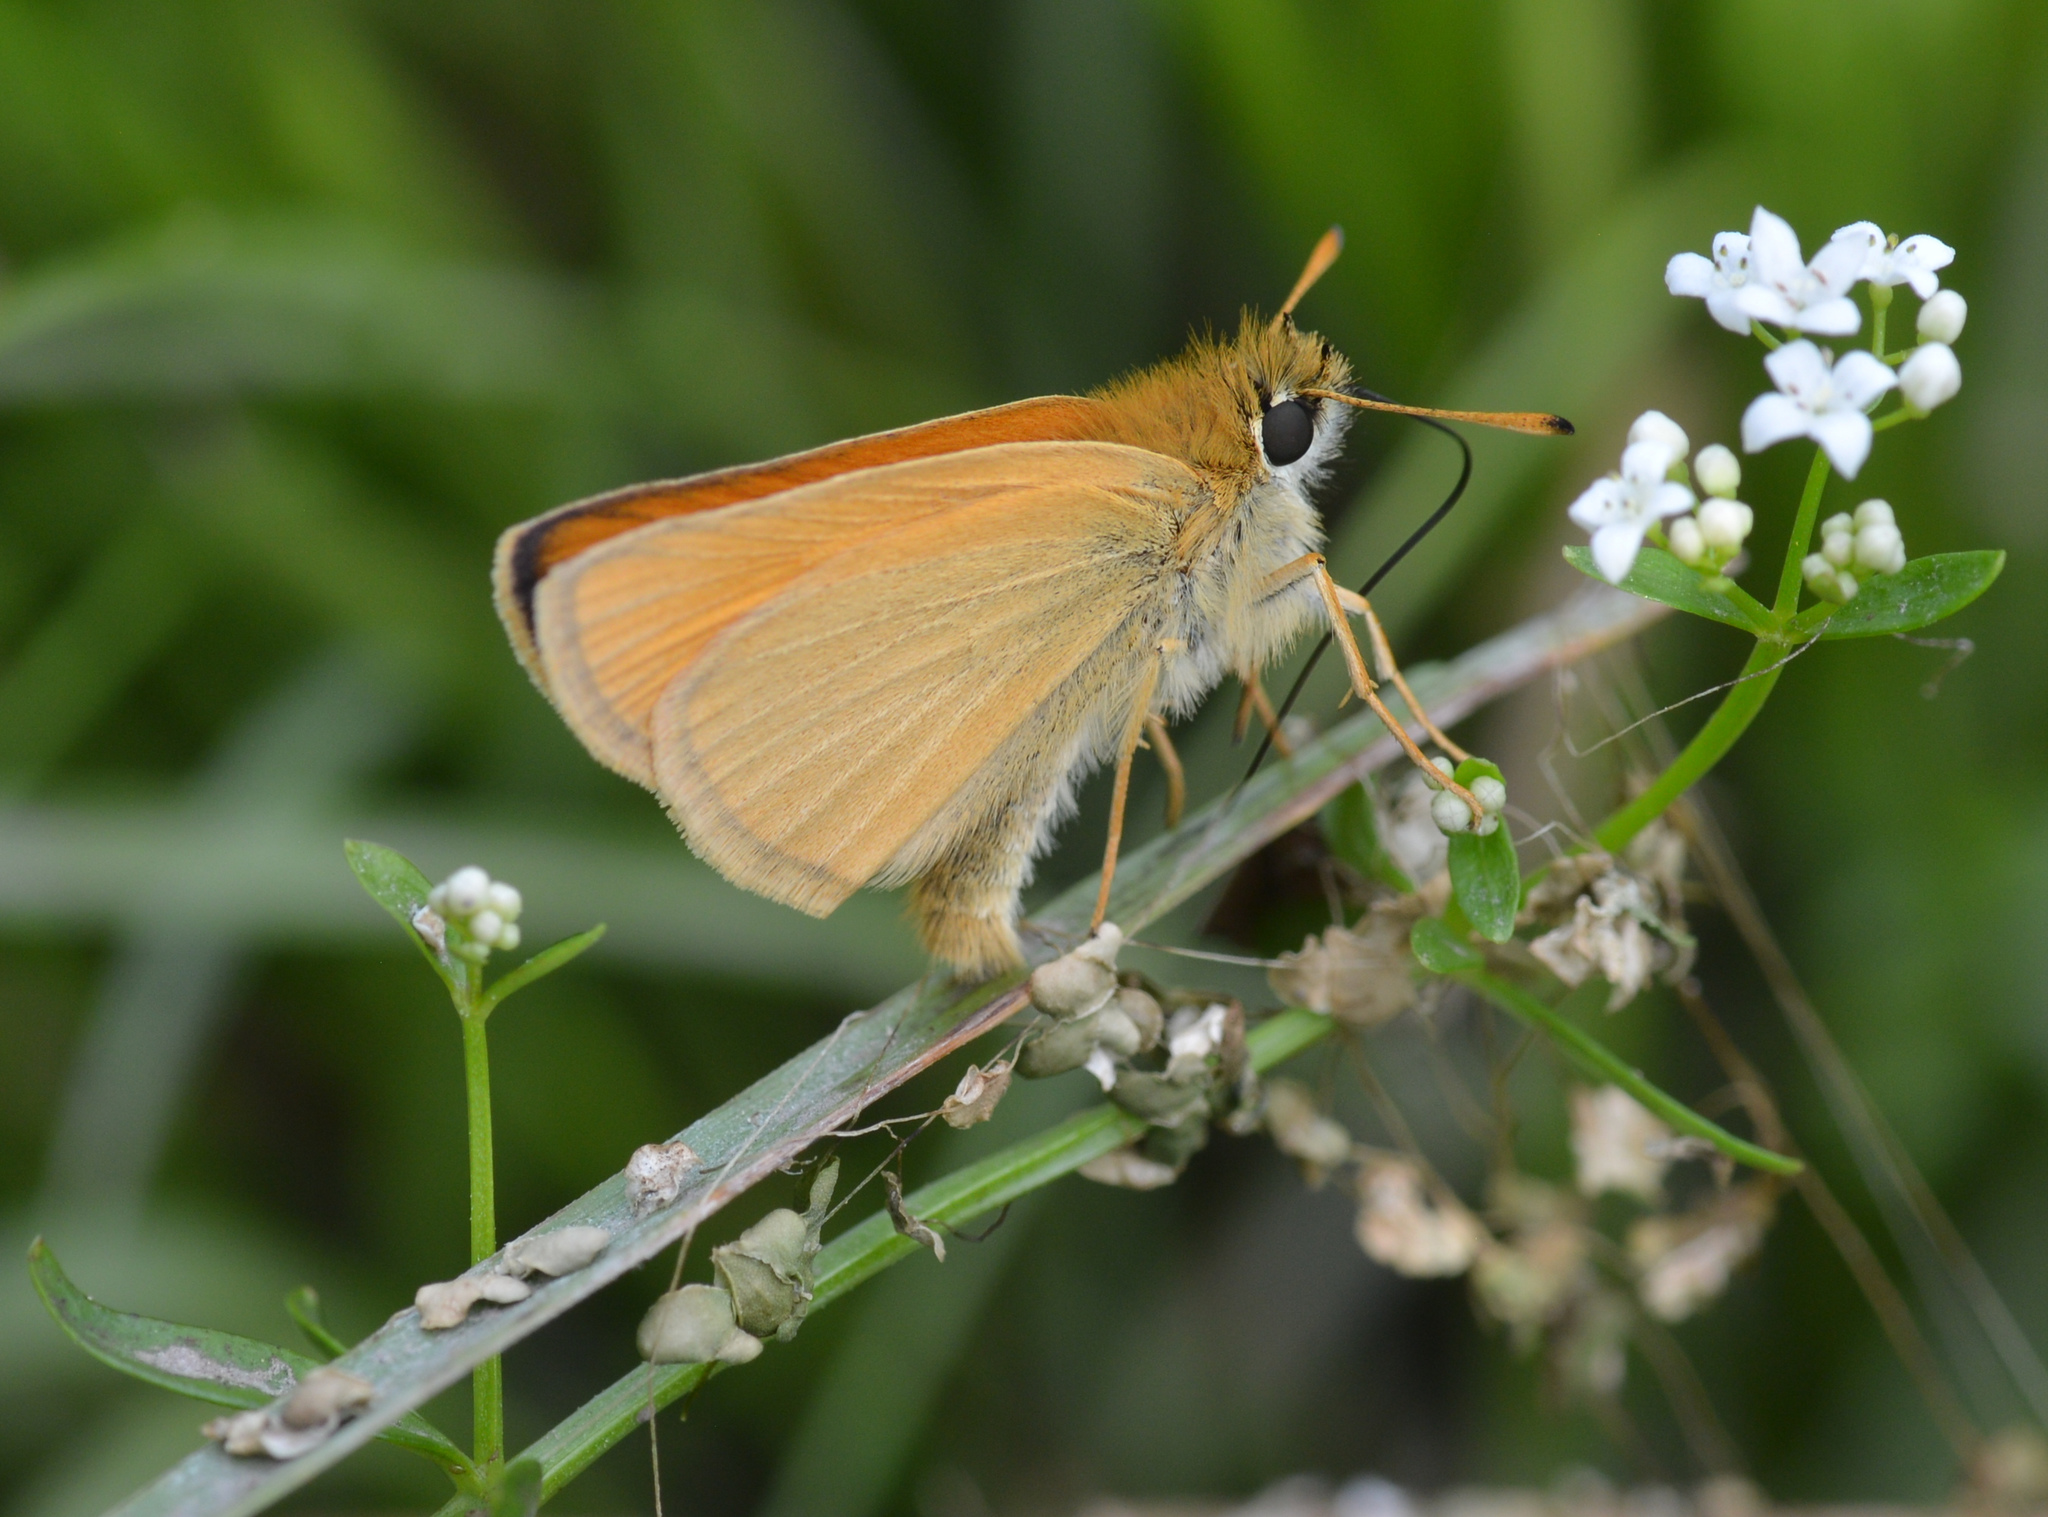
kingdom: Animalia
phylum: Arthropoda
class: Insecta
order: Lepidoptera
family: Hesperiidae
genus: Thymelicus
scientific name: Thymelicus lineola
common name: Essex skipper
